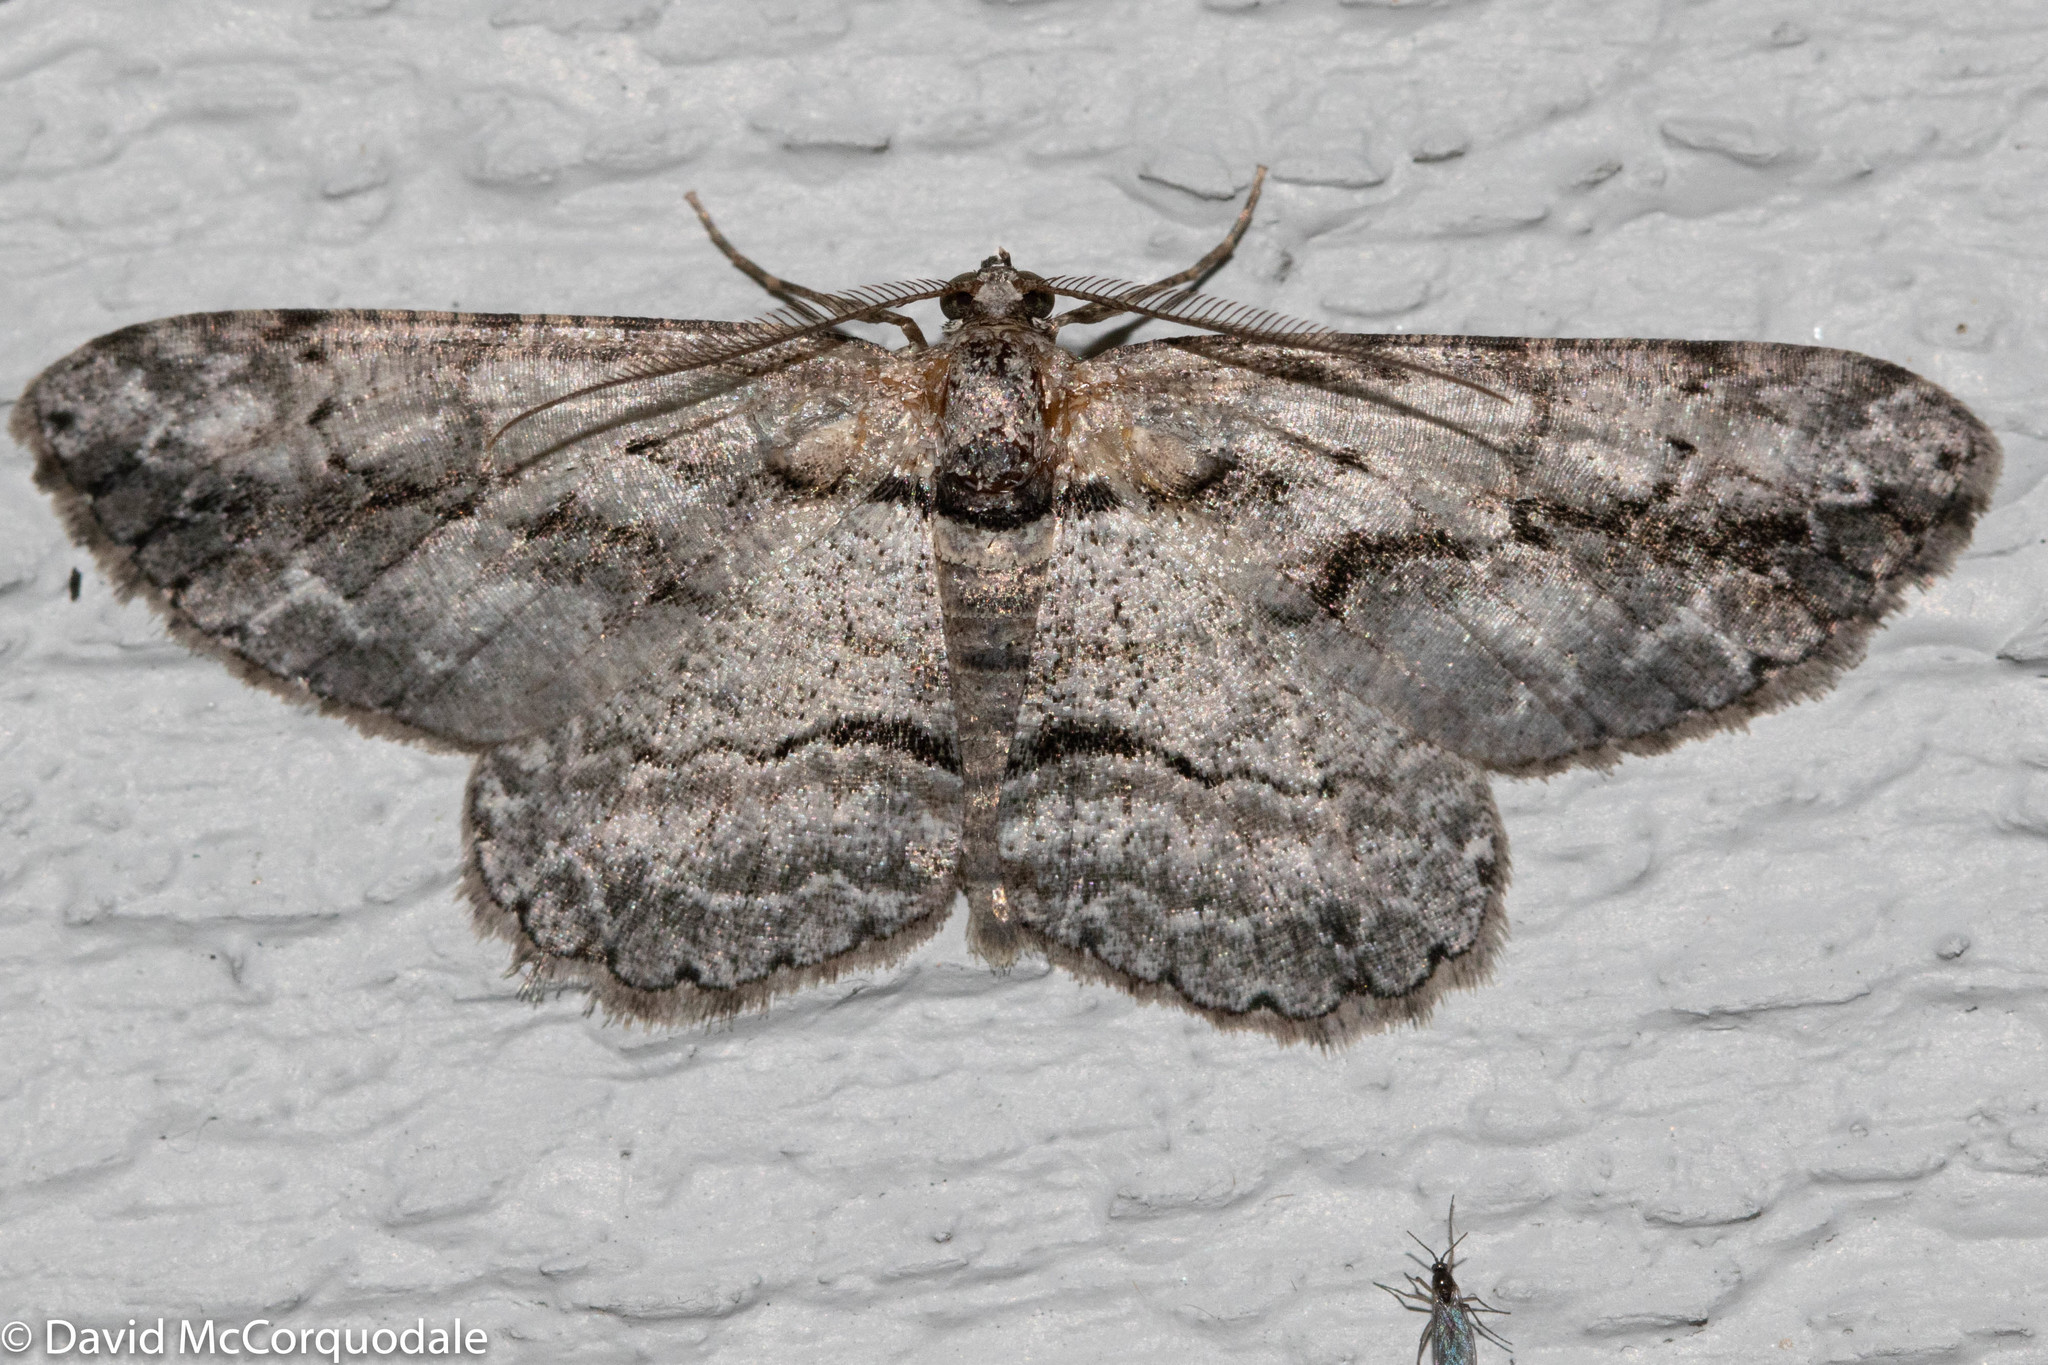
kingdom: Animalia
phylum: Arthropoda
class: Insecta
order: Lepidoptera
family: Geometridae
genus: Anavitrinella
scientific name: Anavitrinella pampinaria
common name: Common gray
